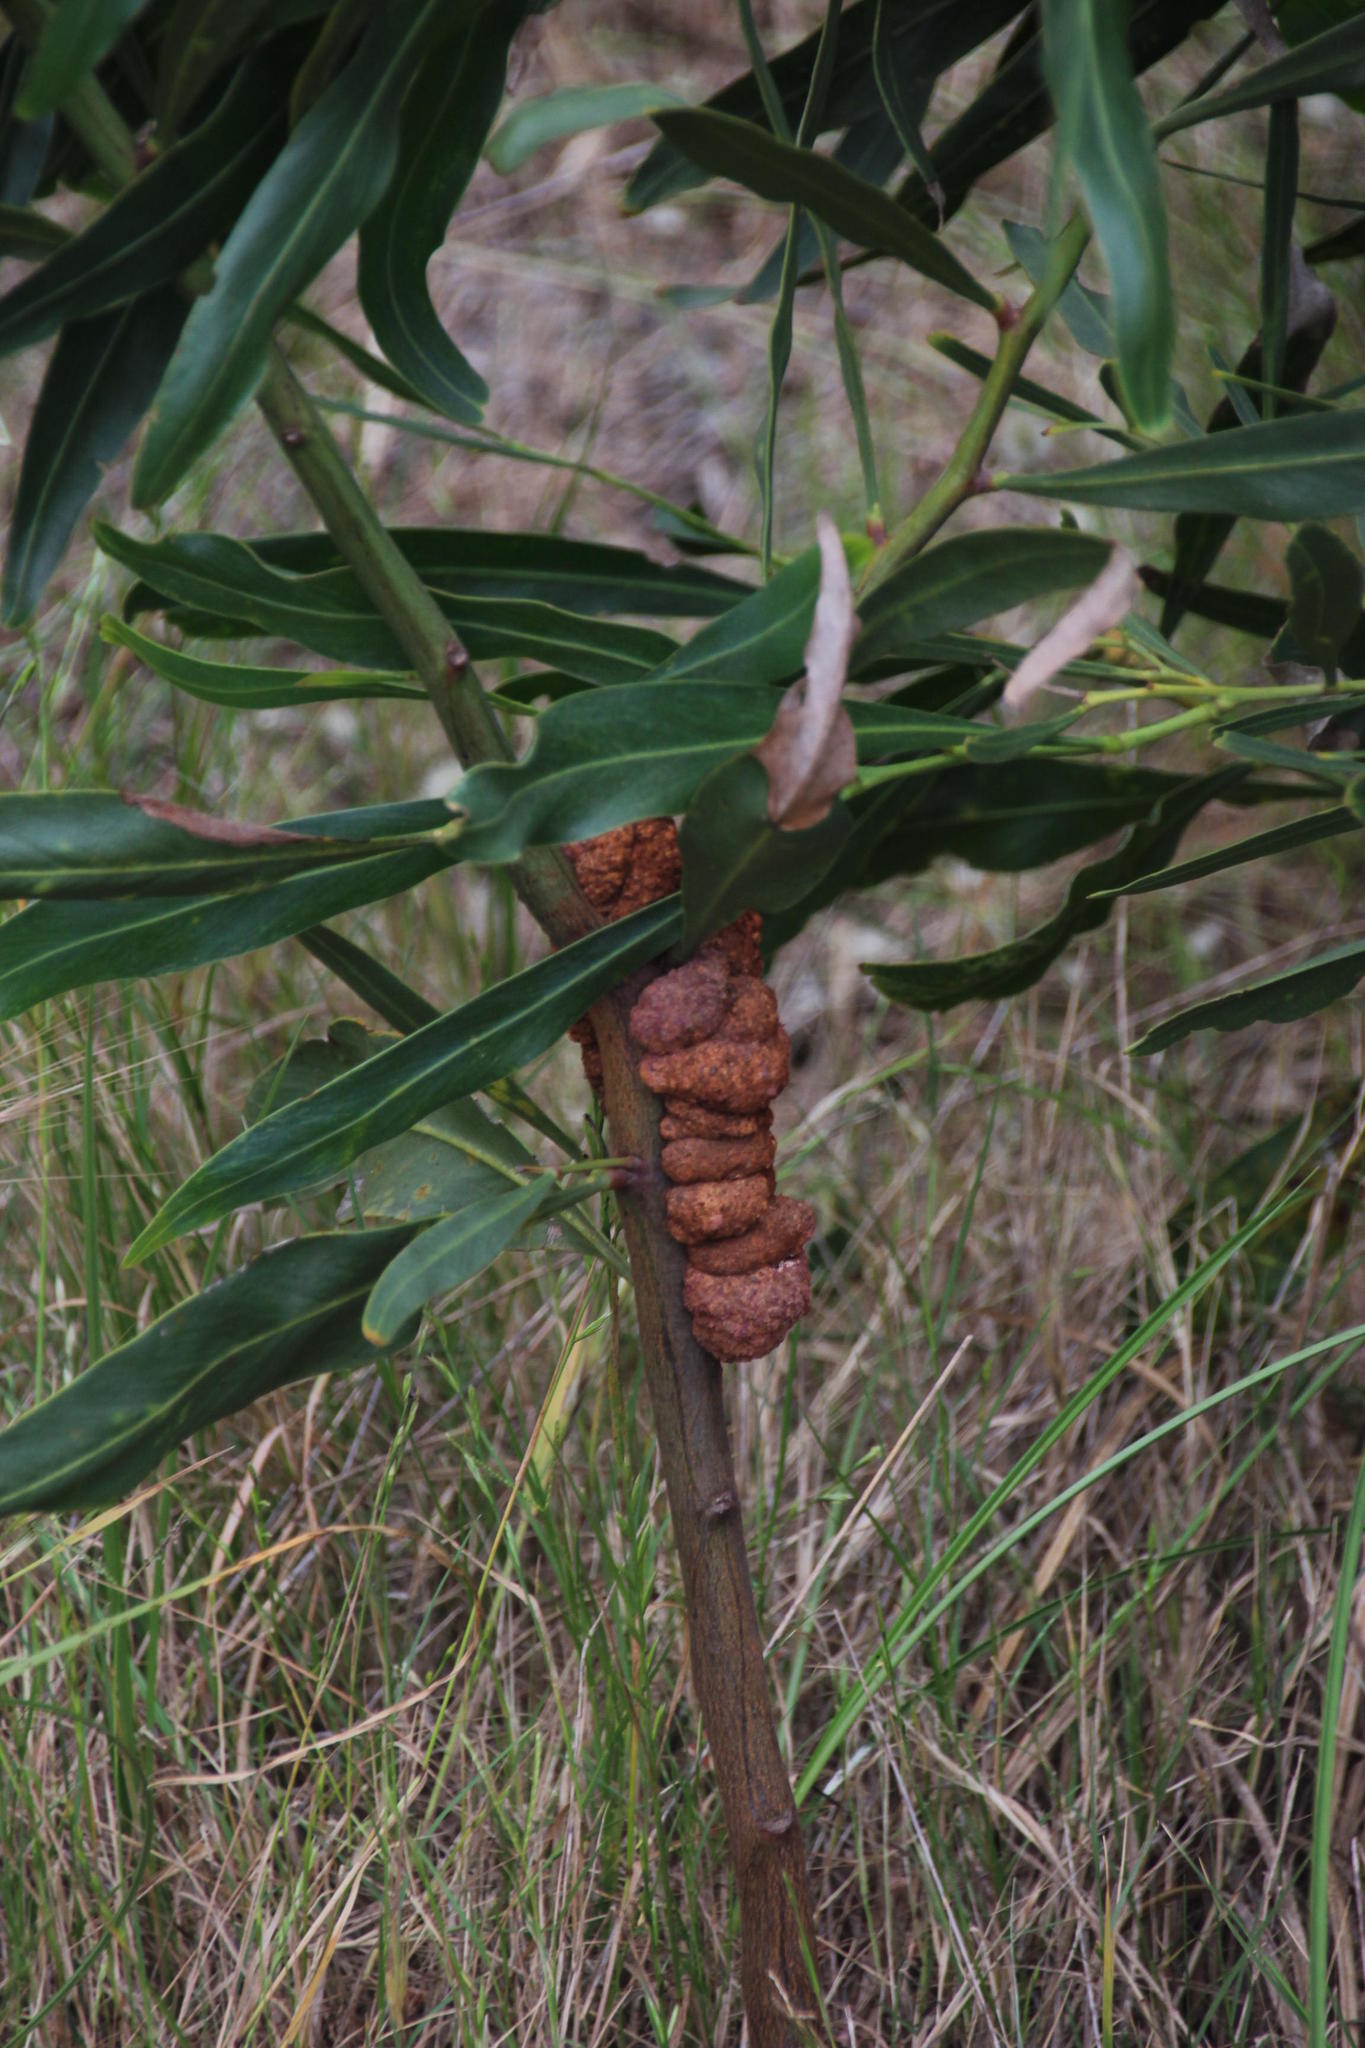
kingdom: Fungi
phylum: Basidiomycota
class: Pucciniomycetes
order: Pucciniales
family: Uromycladiaceae
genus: Uromycladium
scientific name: Uromycladium morrisii
